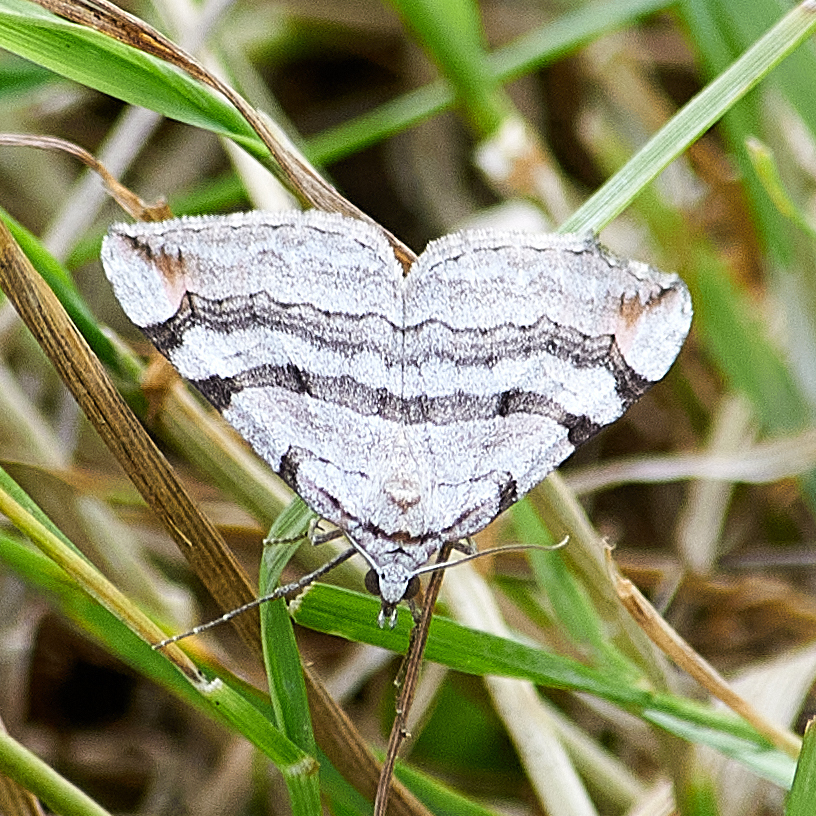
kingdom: Animalia
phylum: Arthropoda
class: Insecta
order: Lepidoptera
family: Geometridae
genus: Aplocera
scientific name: Aplocera plagiata
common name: Treble-bar
